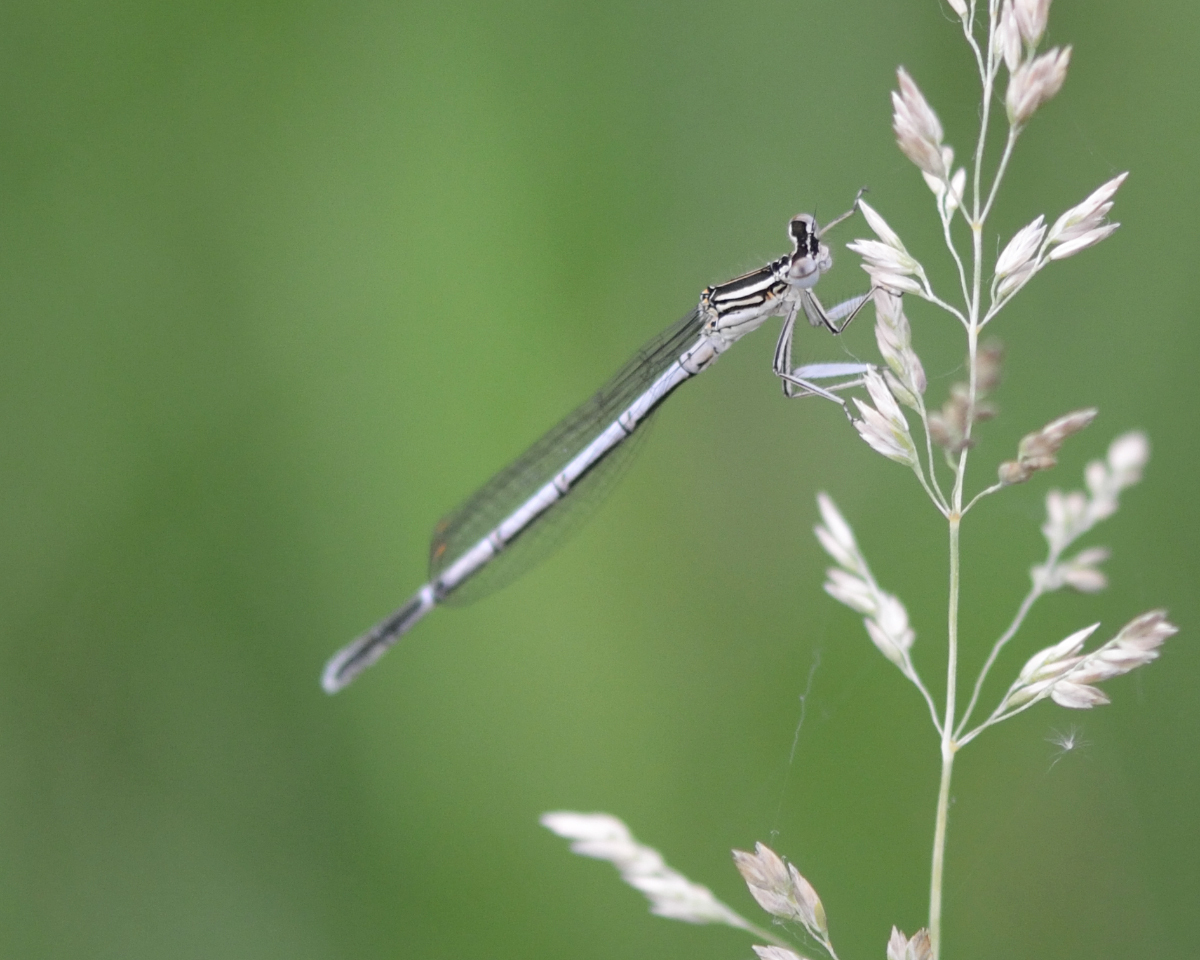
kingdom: Animalia
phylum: Arthropoda
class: Insecta
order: Odonata
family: Platycnemididae
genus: Platycnemis
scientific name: Platycnemis pennipes
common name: White-legged damselfly
